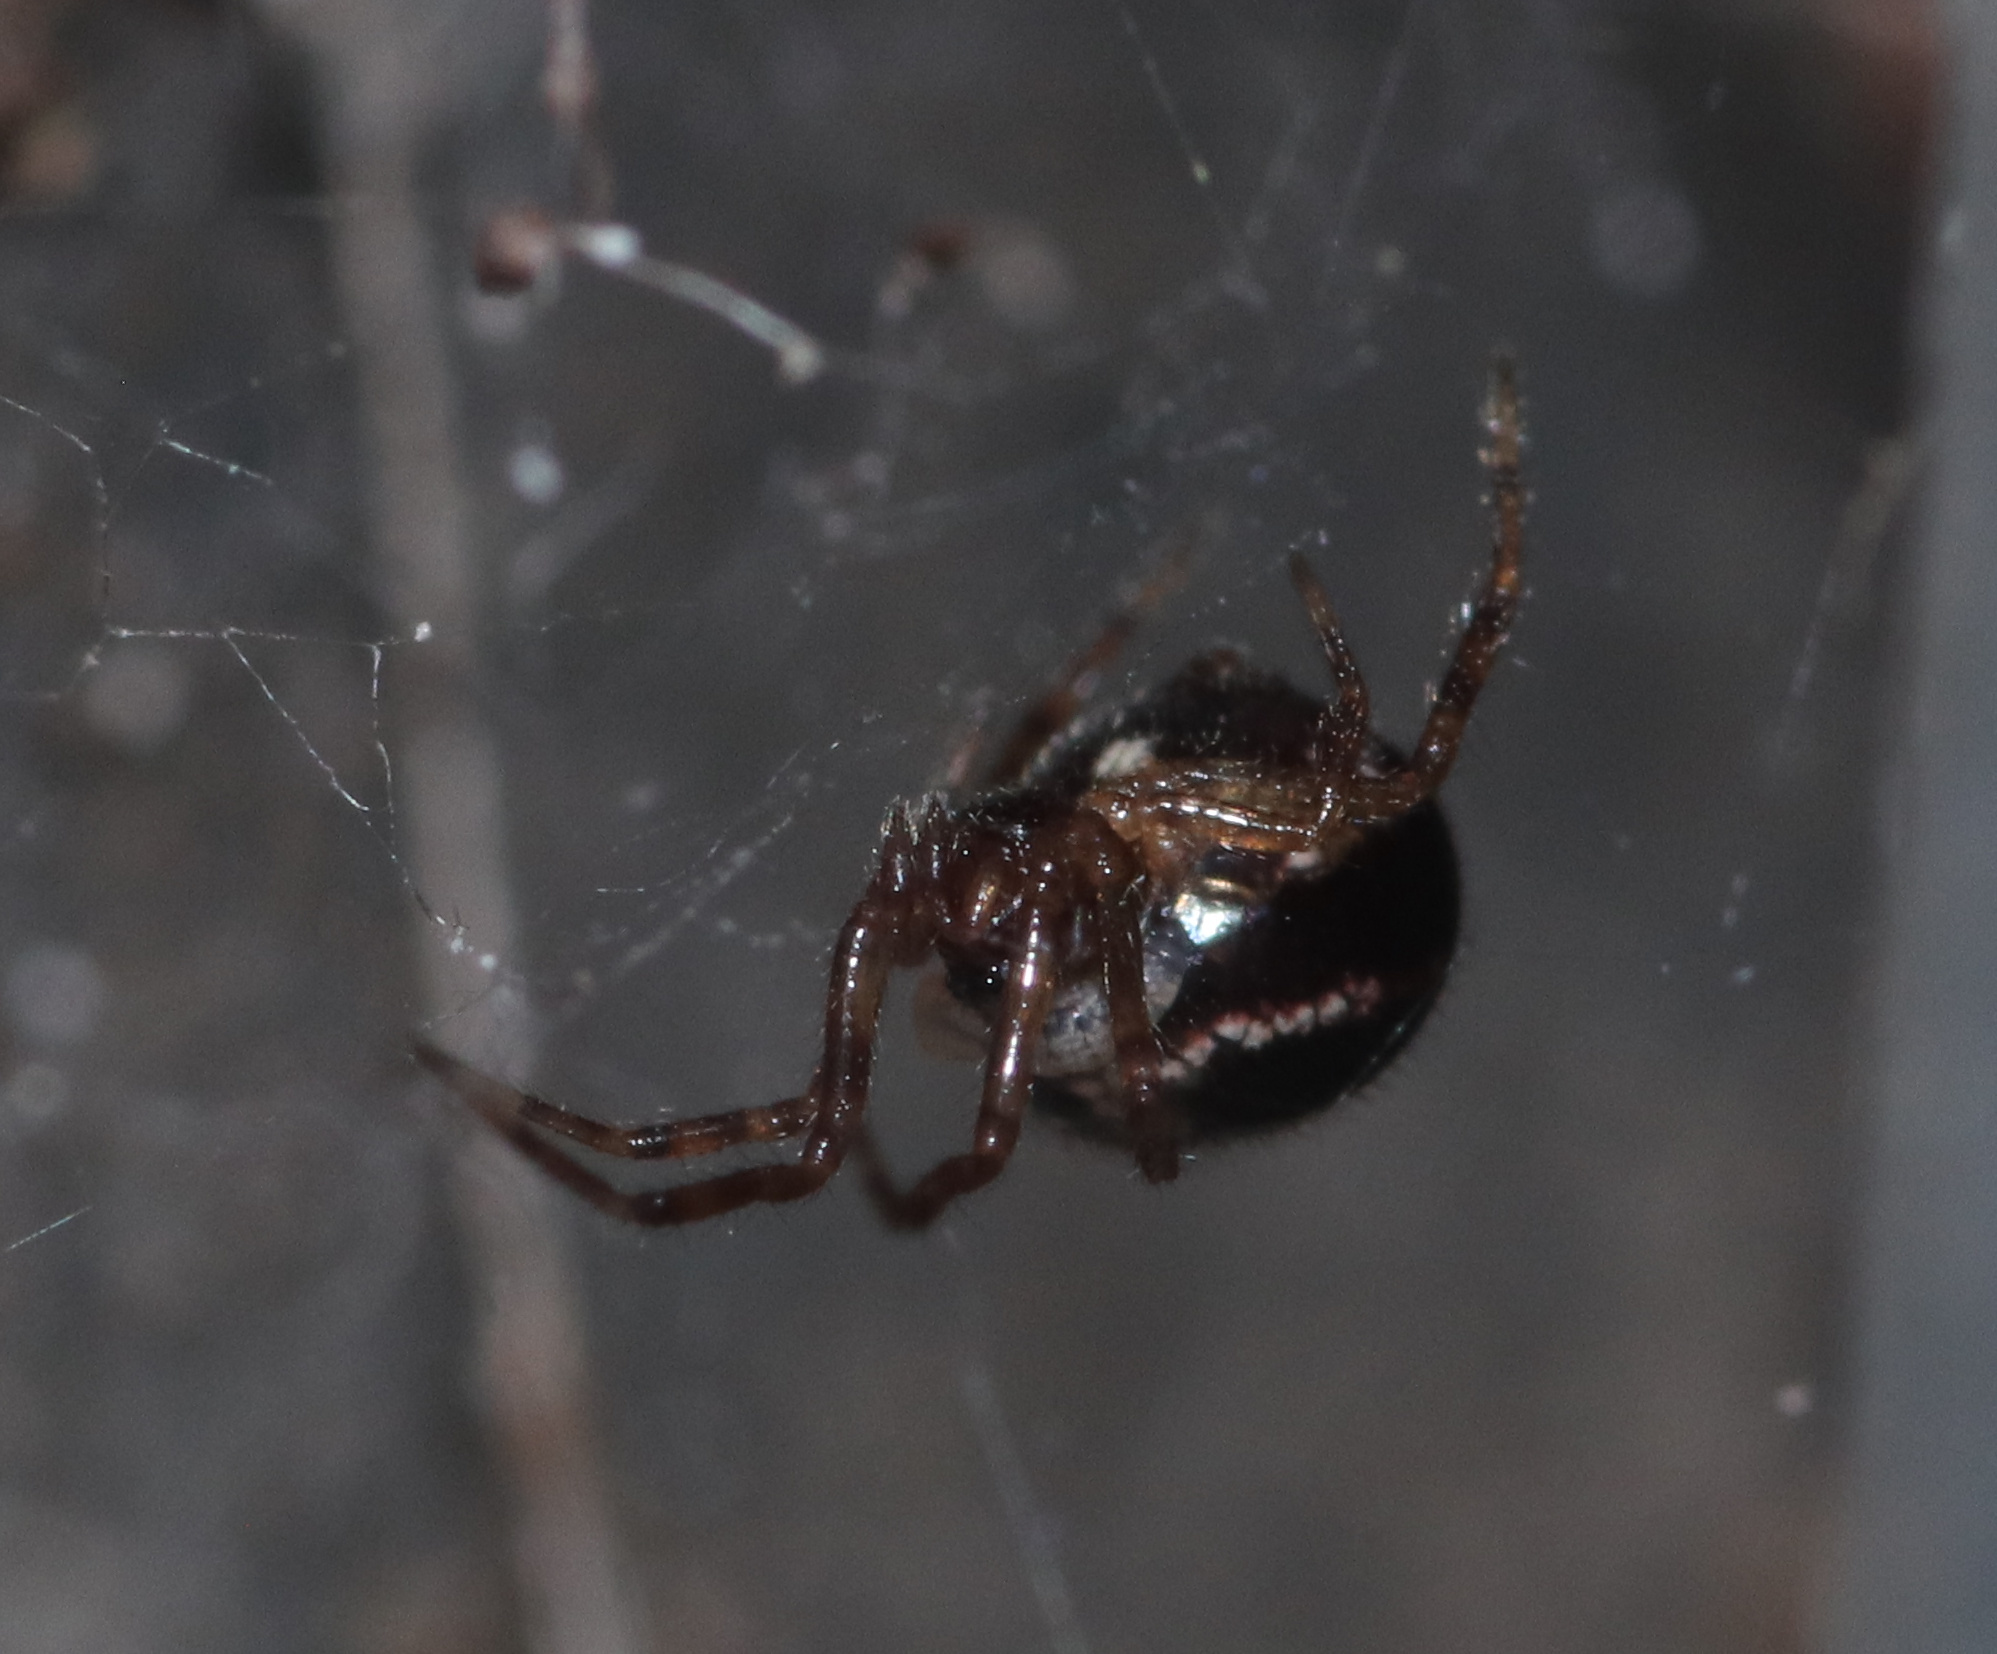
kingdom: Animalia
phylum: Arthropoda
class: Arachnida
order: Araneae
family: Theridiidae
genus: Steatoda
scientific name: Steatoda borealis
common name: Boreal combfoot
